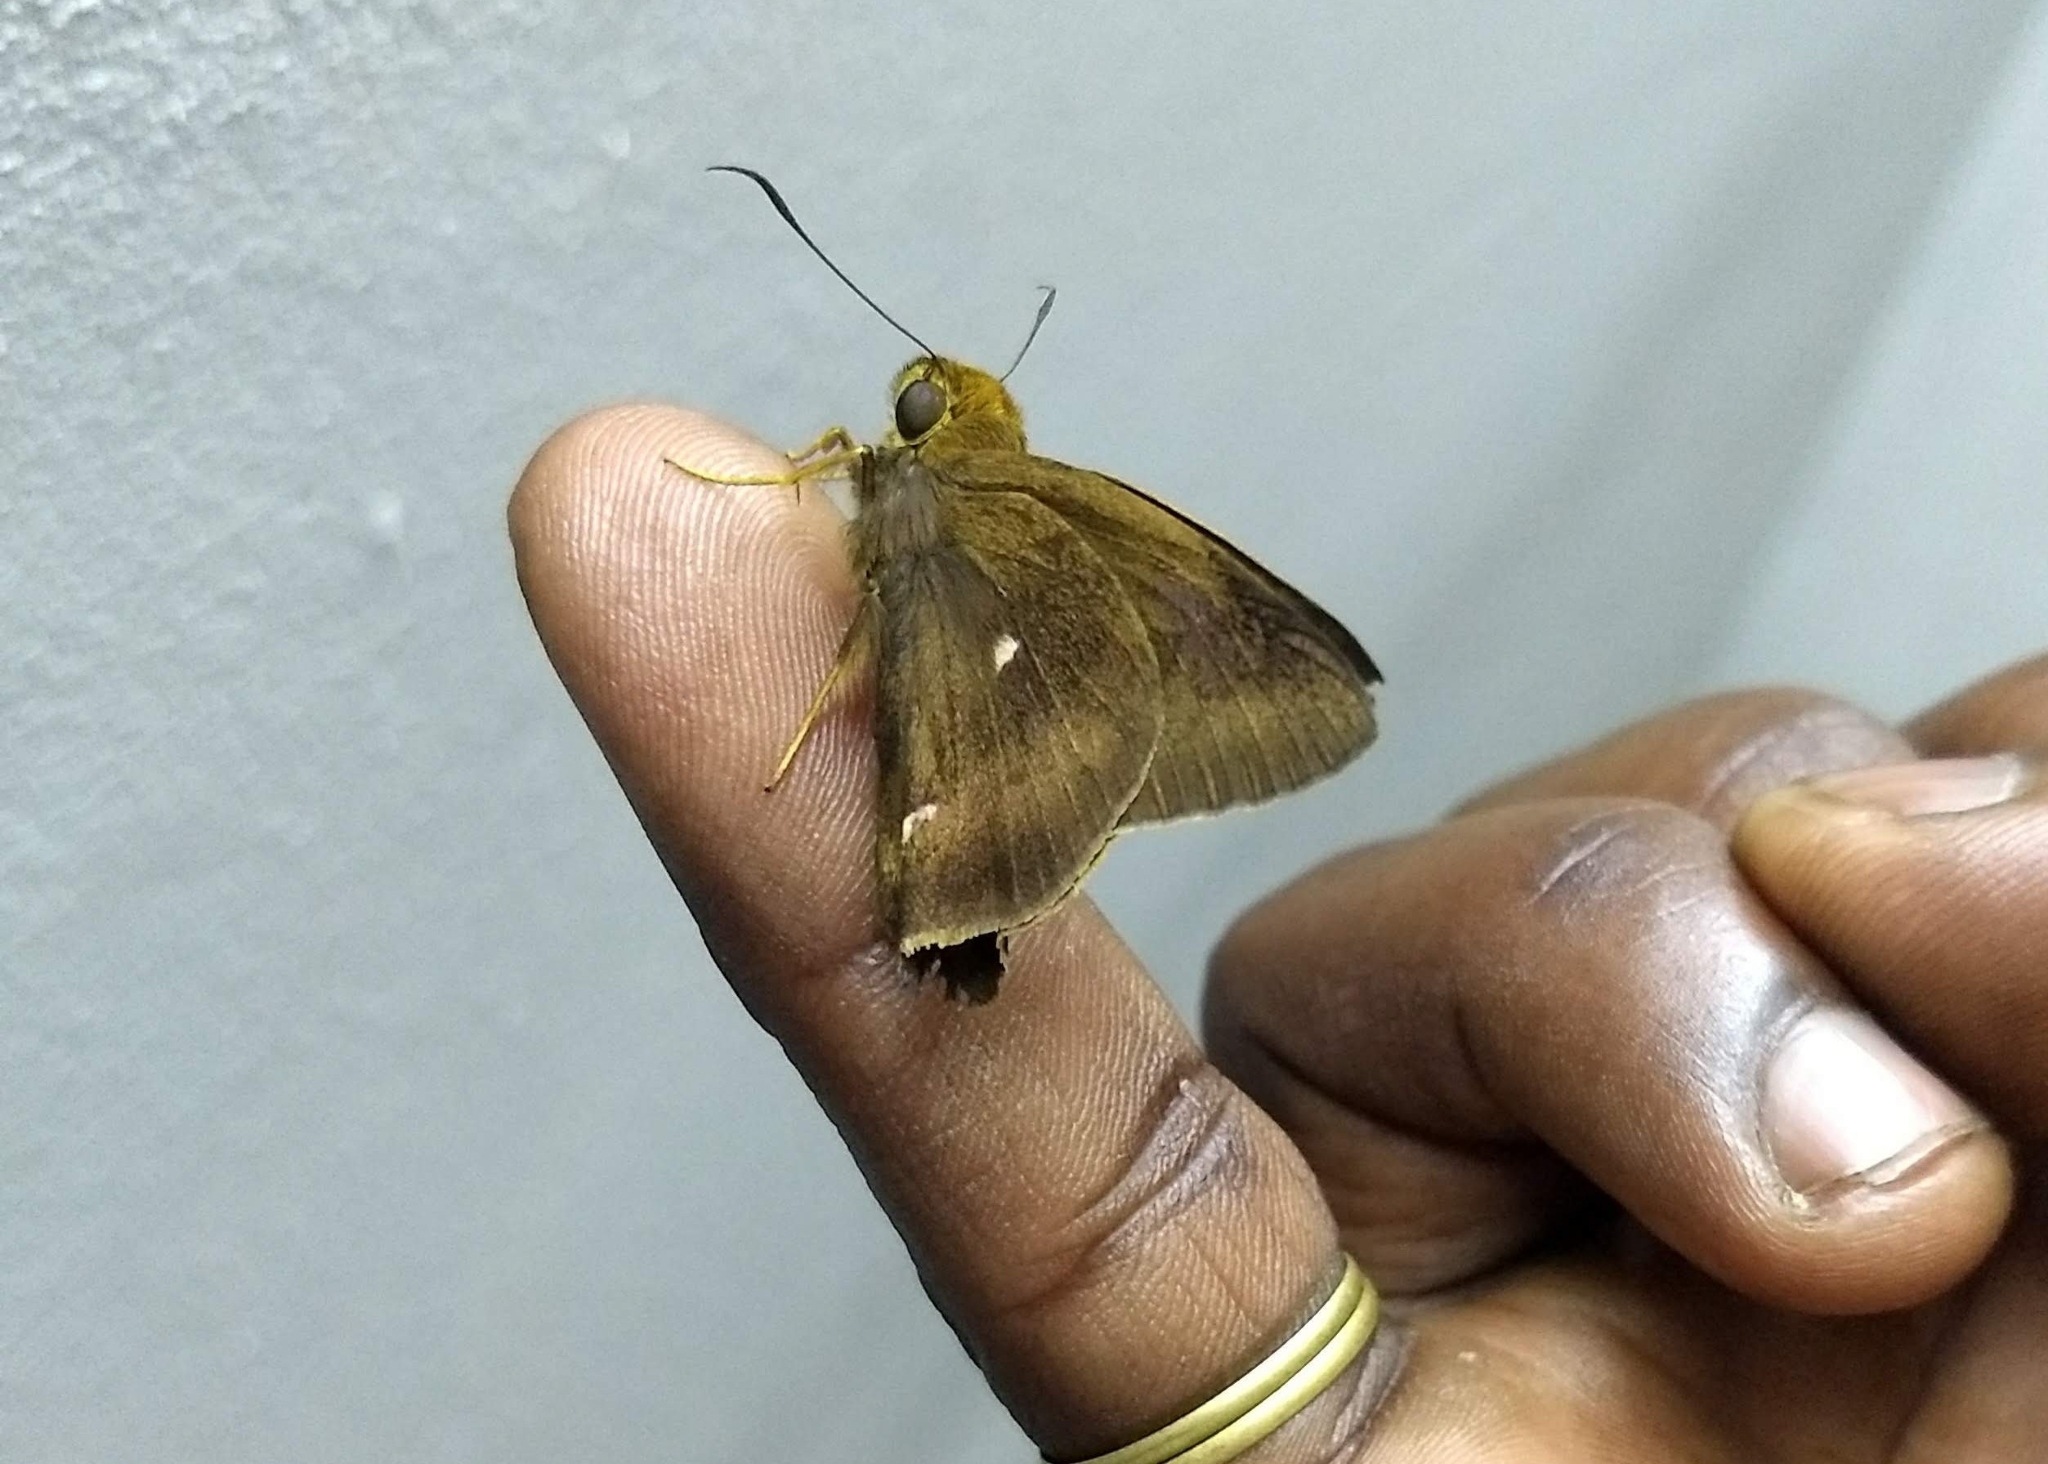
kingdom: Animalia
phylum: Arthropoda
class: Insecta
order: Lepidoptera
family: Hesperiidae
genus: Hasora
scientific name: Hasora badra
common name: Common awl
